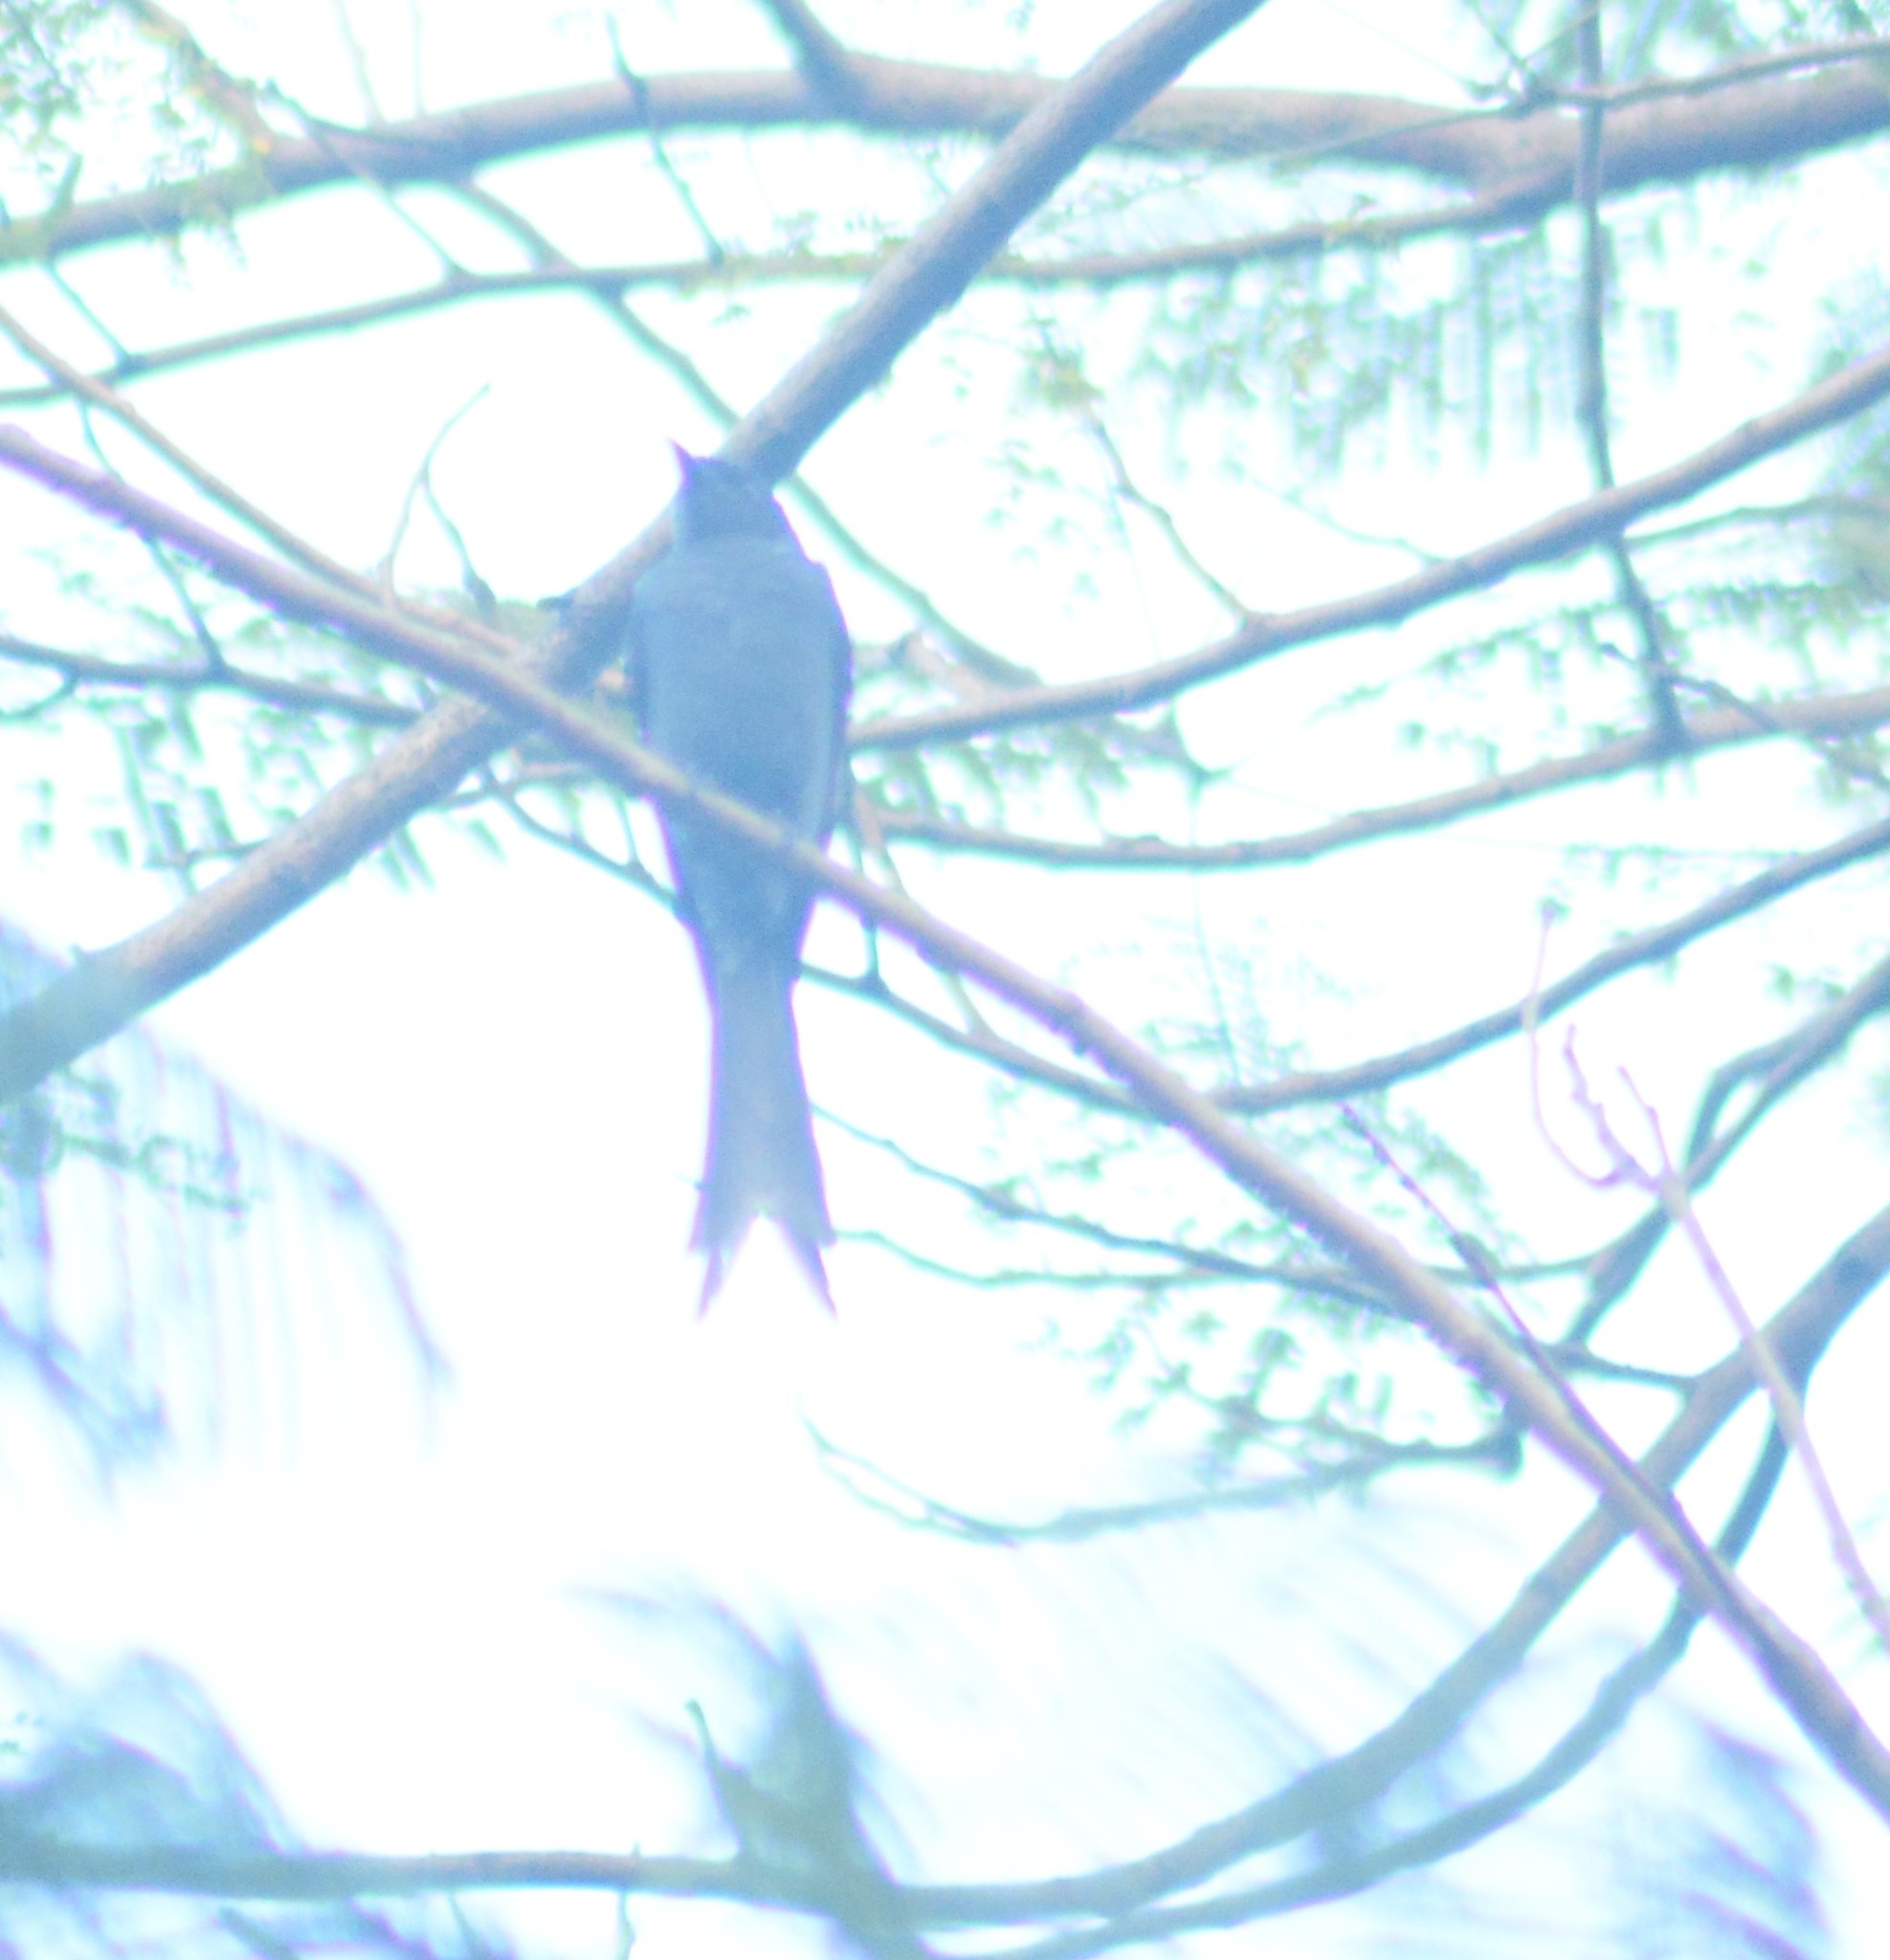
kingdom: Animalia
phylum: Chordata
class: Aves
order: Passeriformes
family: Dicruridae
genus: Dicrurus
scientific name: Dicrurus leucophaeus
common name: Ashy drongo
